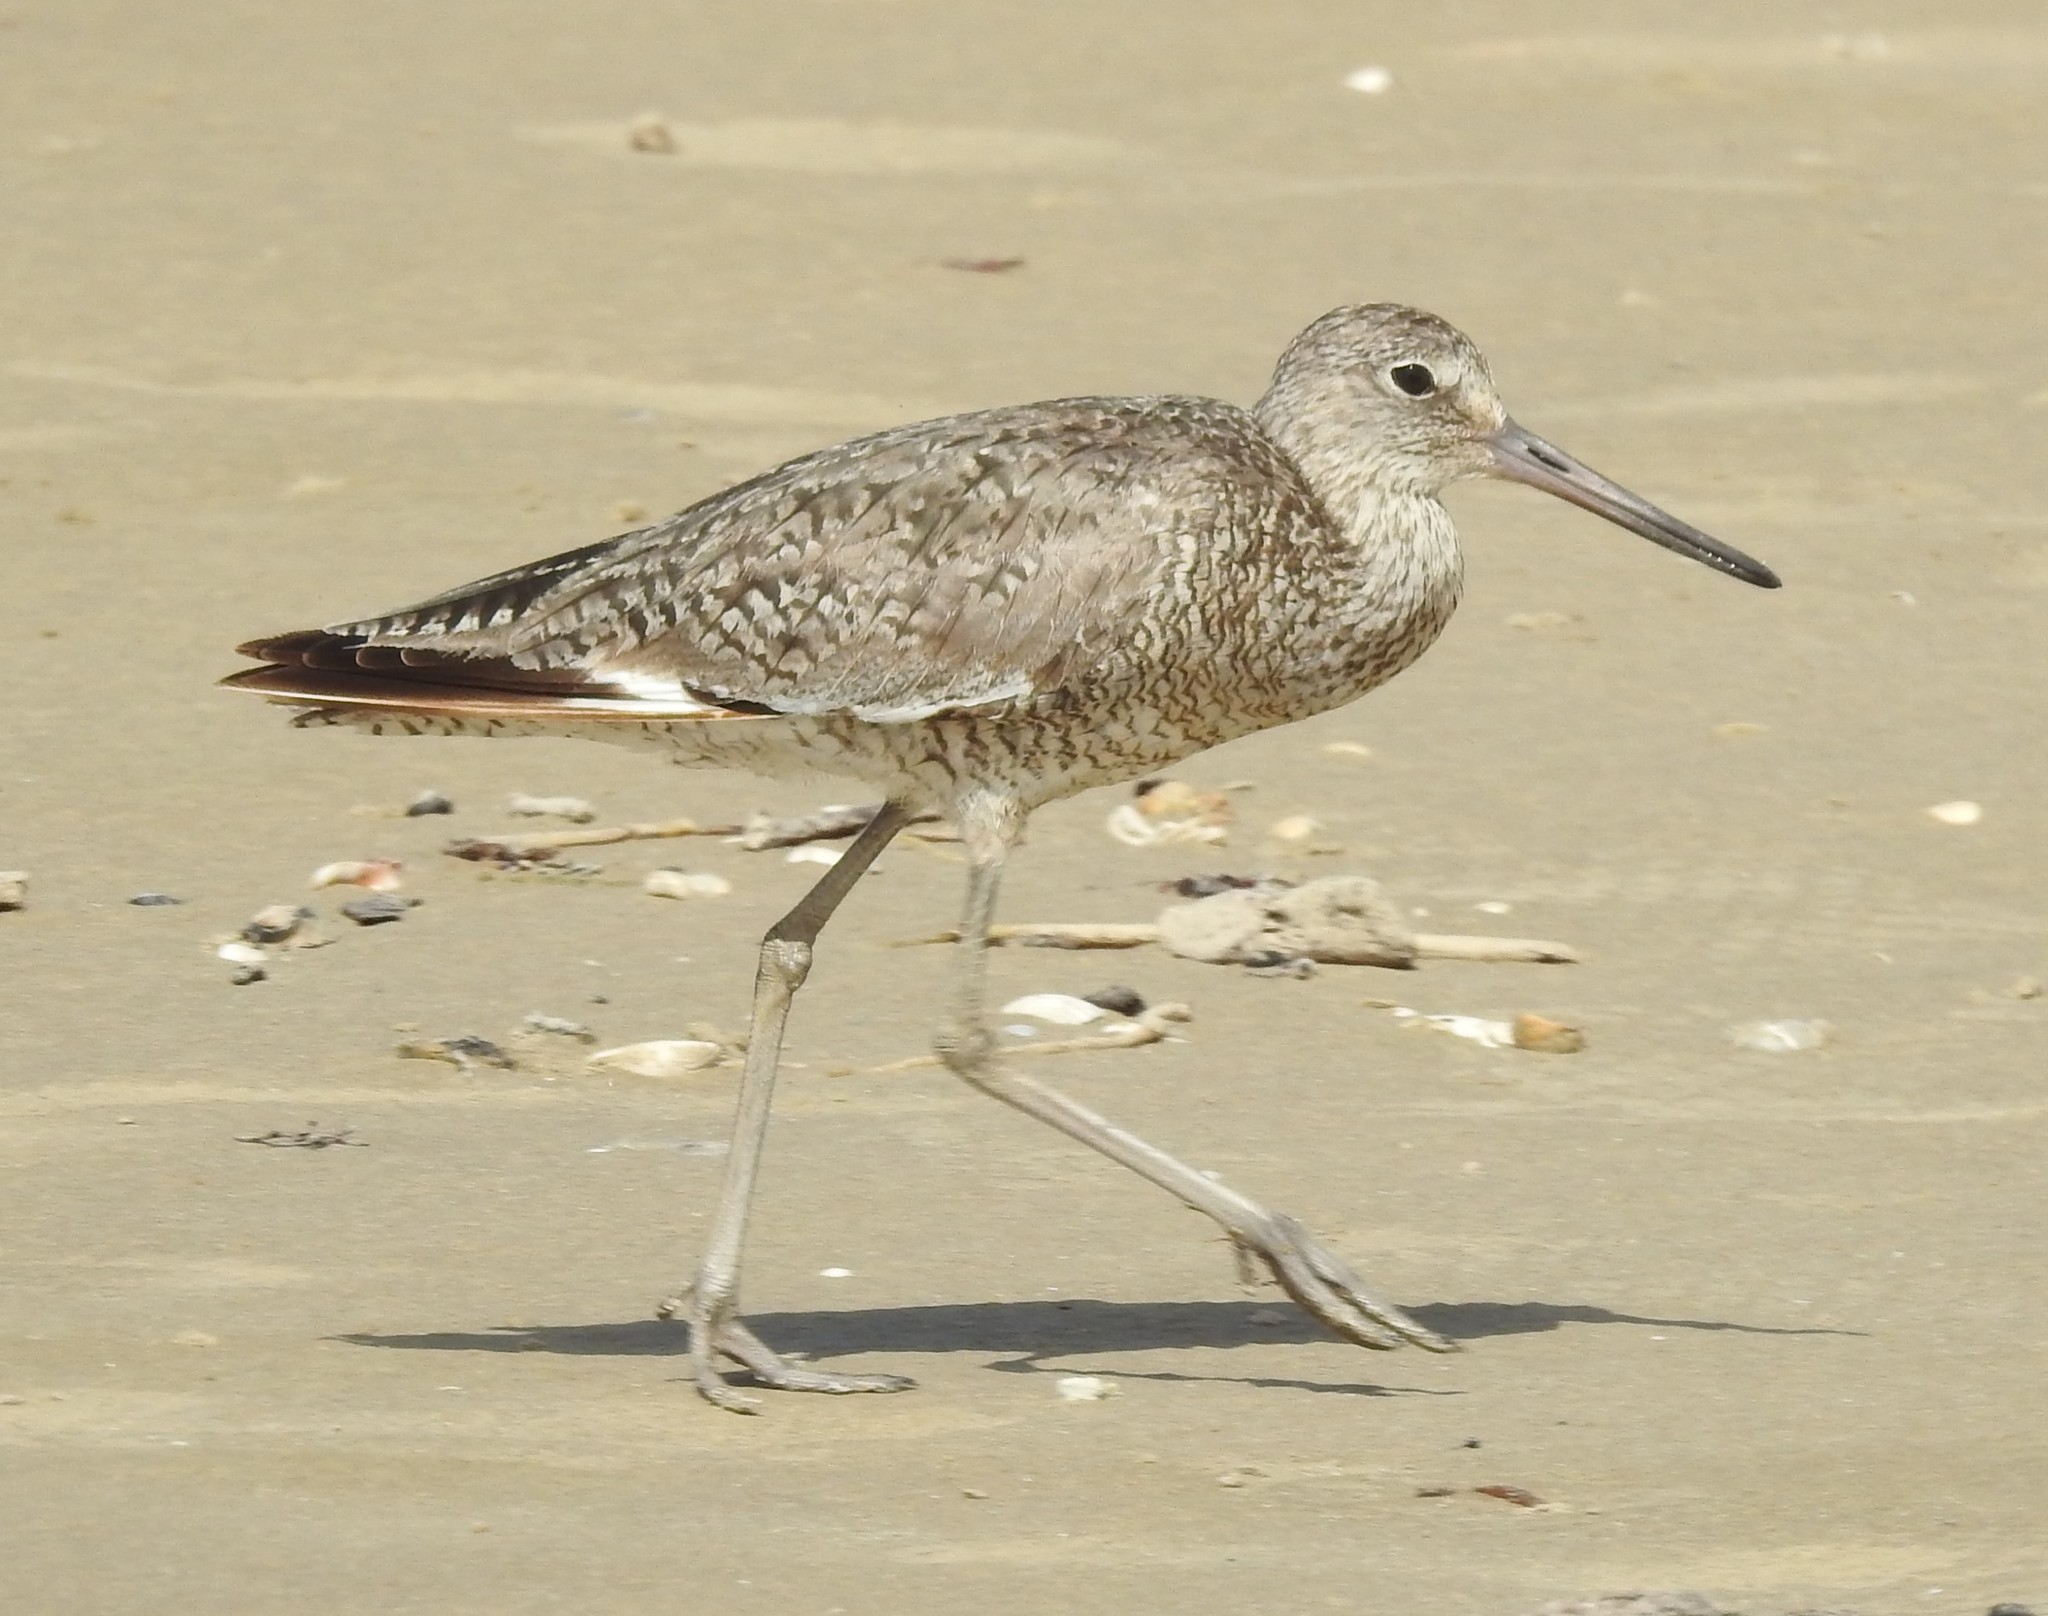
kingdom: Animalia
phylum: Chordata
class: Aves
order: Charadriiformes
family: Scolopacidae
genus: Tringa
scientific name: Tringa semipalmata
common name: Willet
